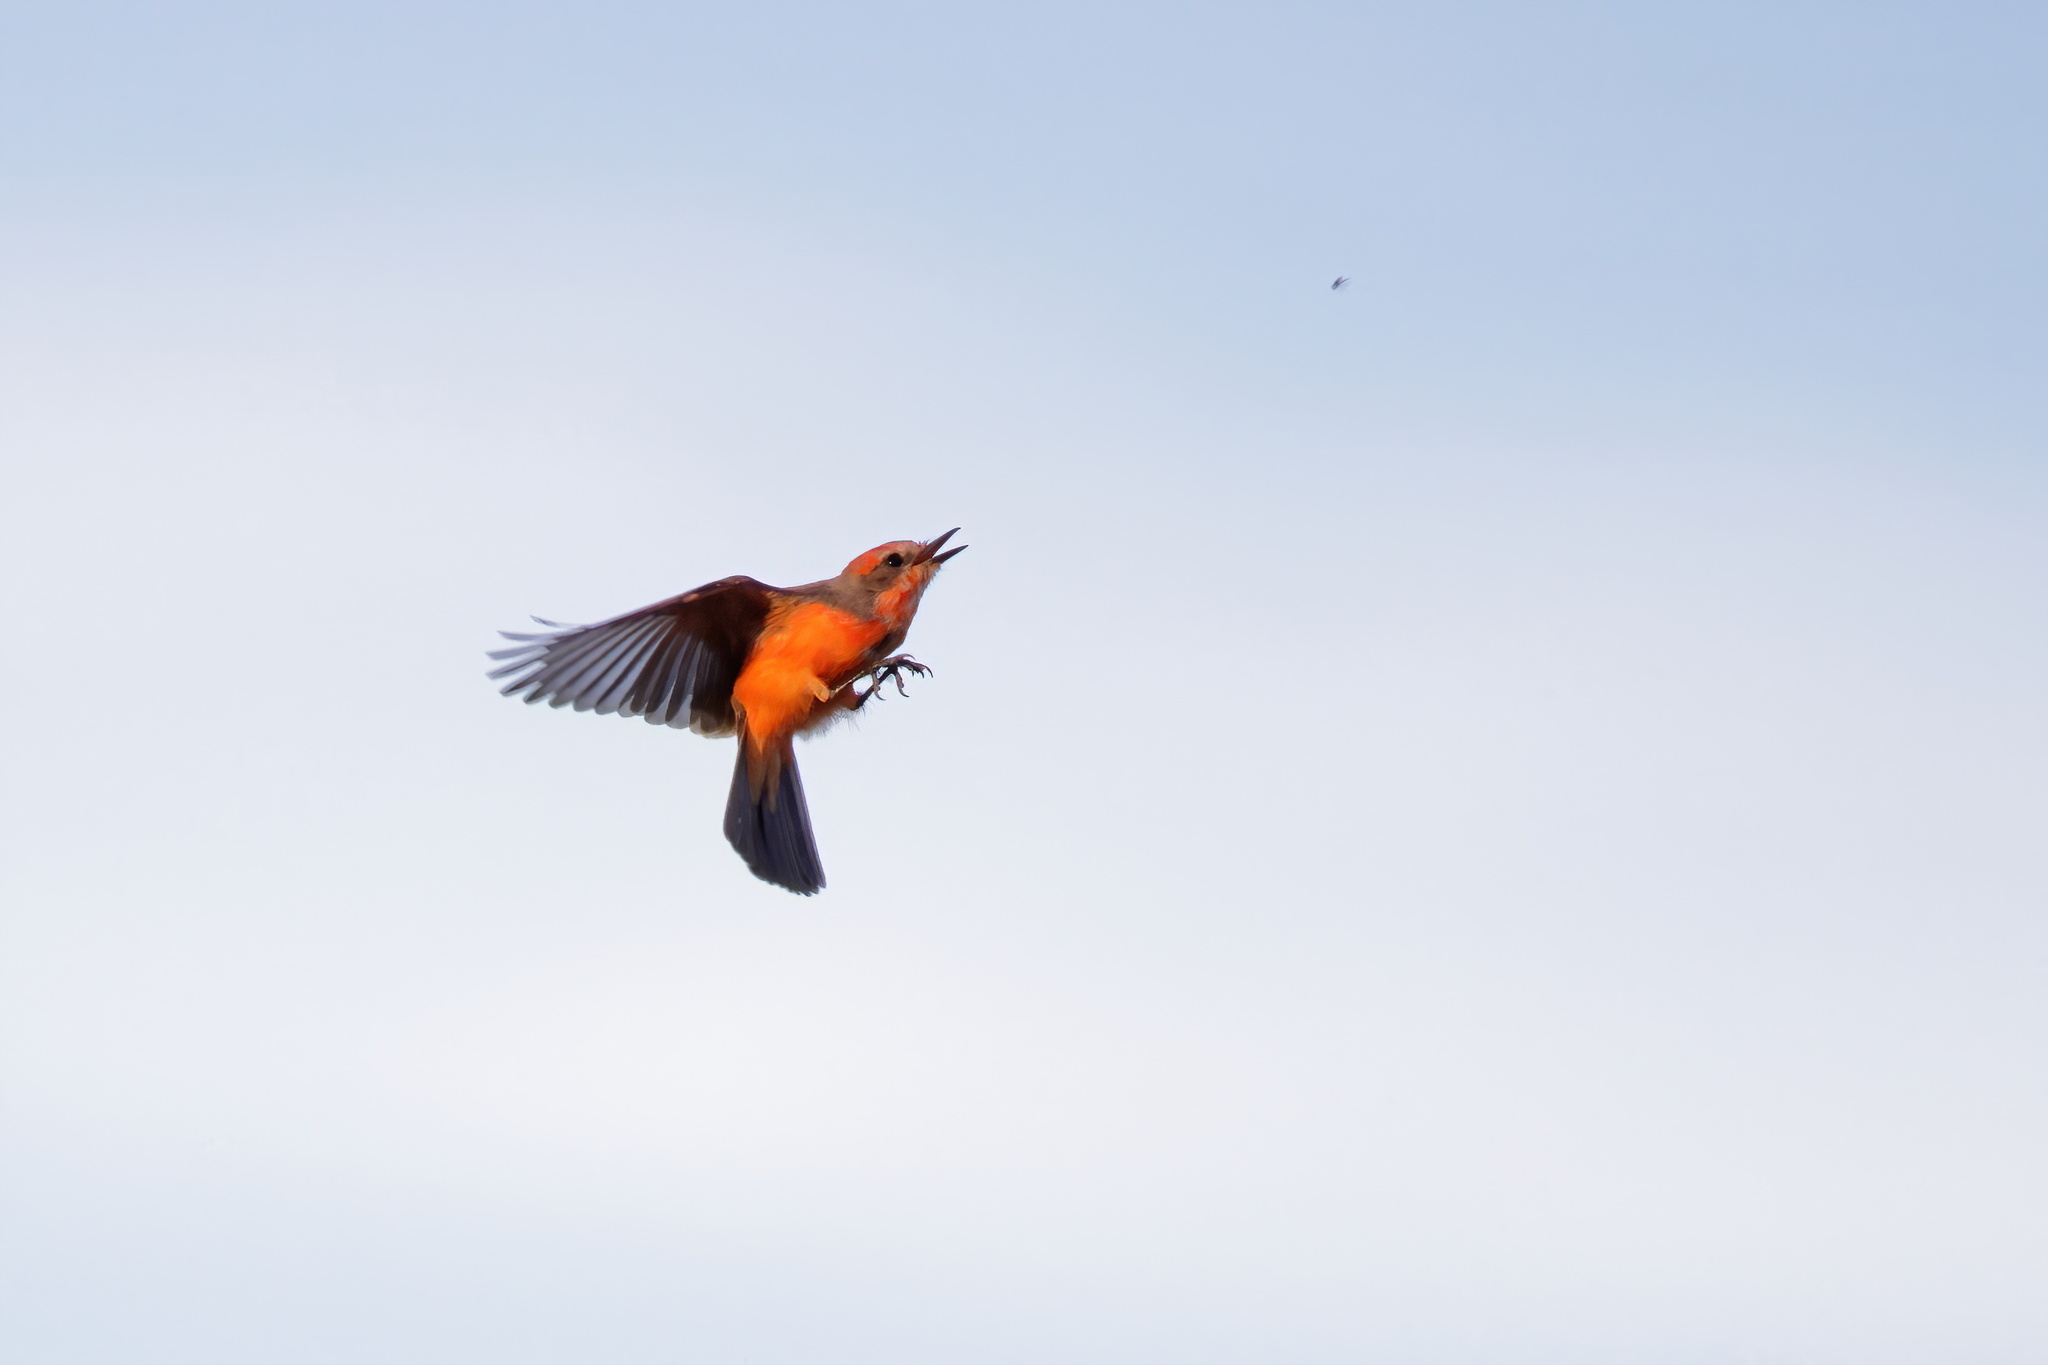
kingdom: Animalia
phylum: Chordata
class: Aves
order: Passeriformes
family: Tyrannidae
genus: Pyrocephalus
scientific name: Pyrocephalus rubinus
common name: Vermilion flycatcher
